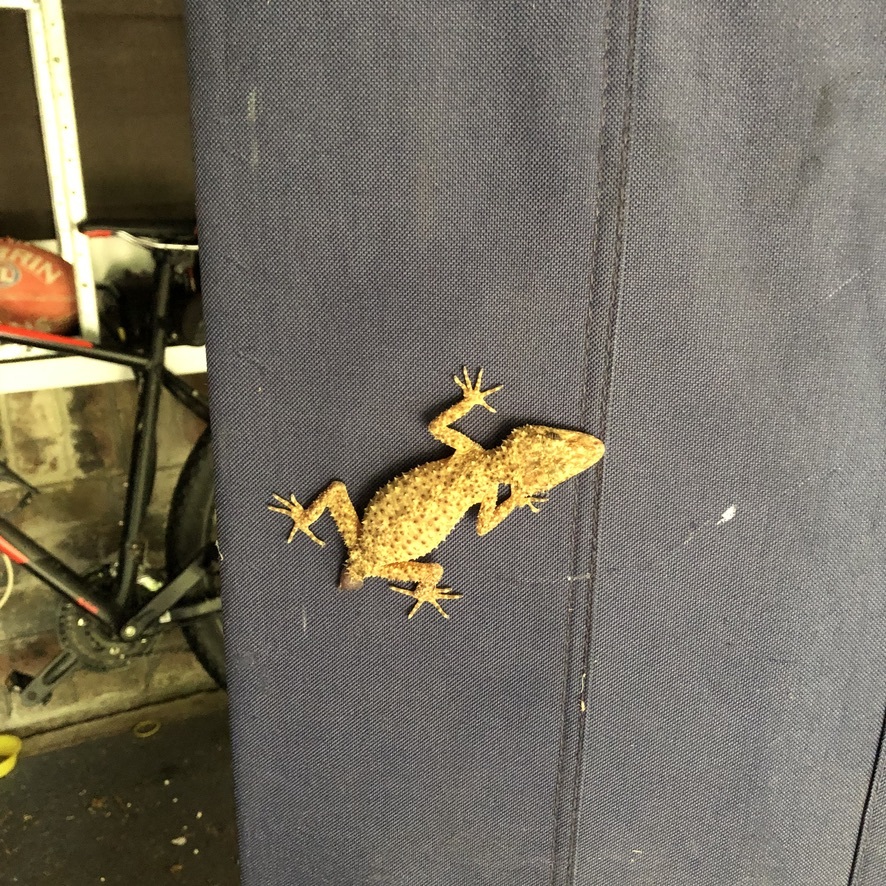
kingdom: Animalia
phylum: Chordata
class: Squamata
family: Carphodactylidae
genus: Phyllurus
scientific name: Phyllurus platurus
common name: Broad-tailed gecko
